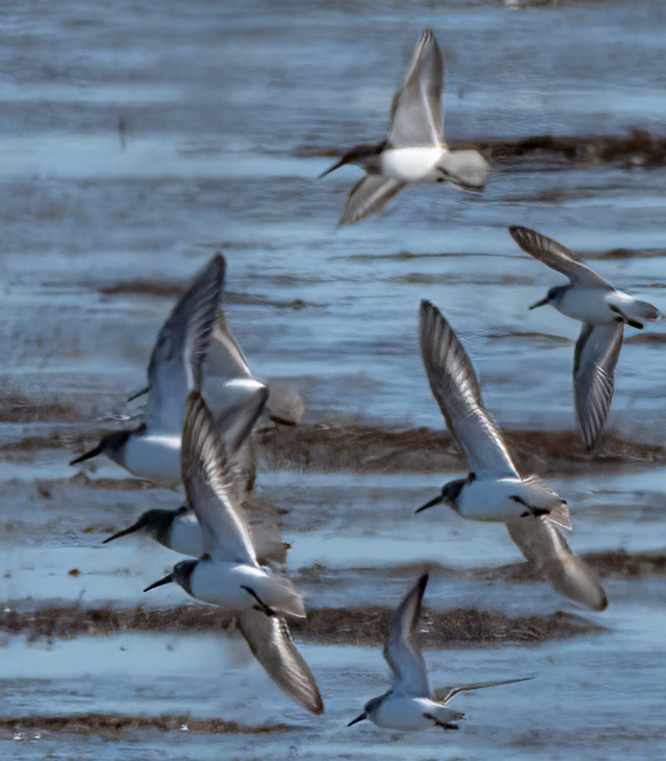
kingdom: Animalia
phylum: Chordata
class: Aves
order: Charadriiformes
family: Scolopacidae
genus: Calidris
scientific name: Calidris alpina
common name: Dunlin
